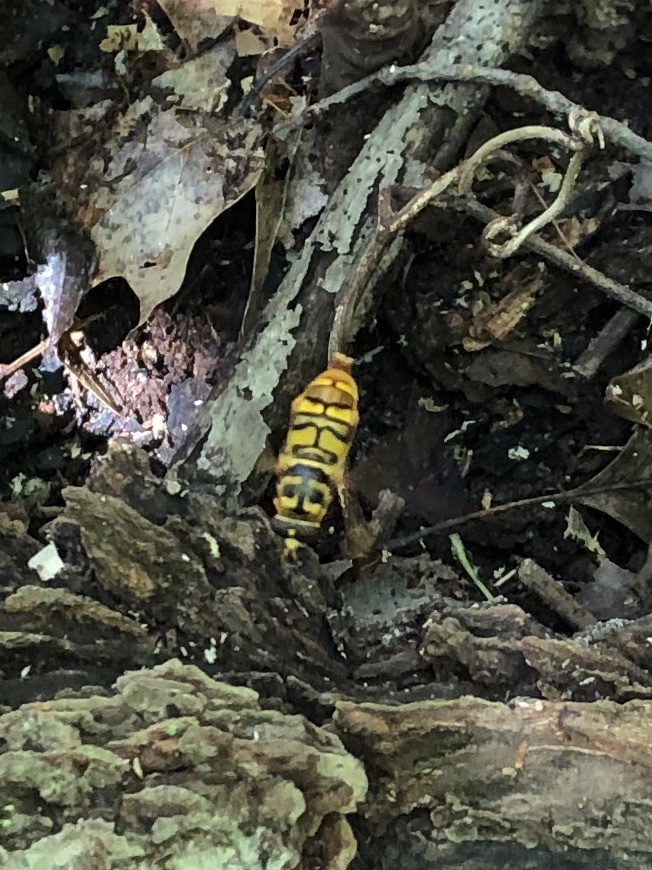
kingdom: Animalia
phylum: Arthropoda
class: Insecta
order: Diptera
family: Syrphidae
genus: Milesia
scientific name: Milesia virginiensis
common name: Virginia giant
